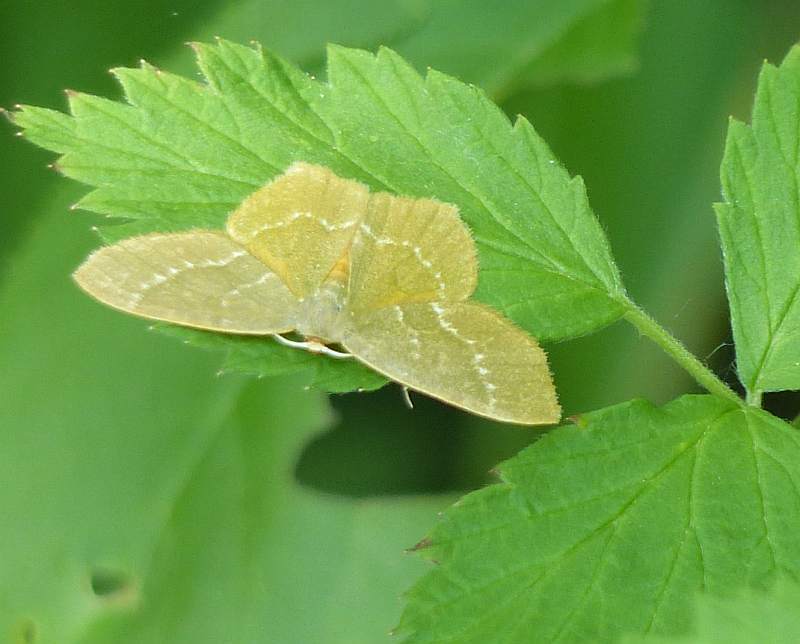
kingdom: Animalia
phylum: Arthropoda
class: Insecta
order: Lepidoptera
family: Geometridae
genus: Thalera
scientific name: Thalera pistasciaria
